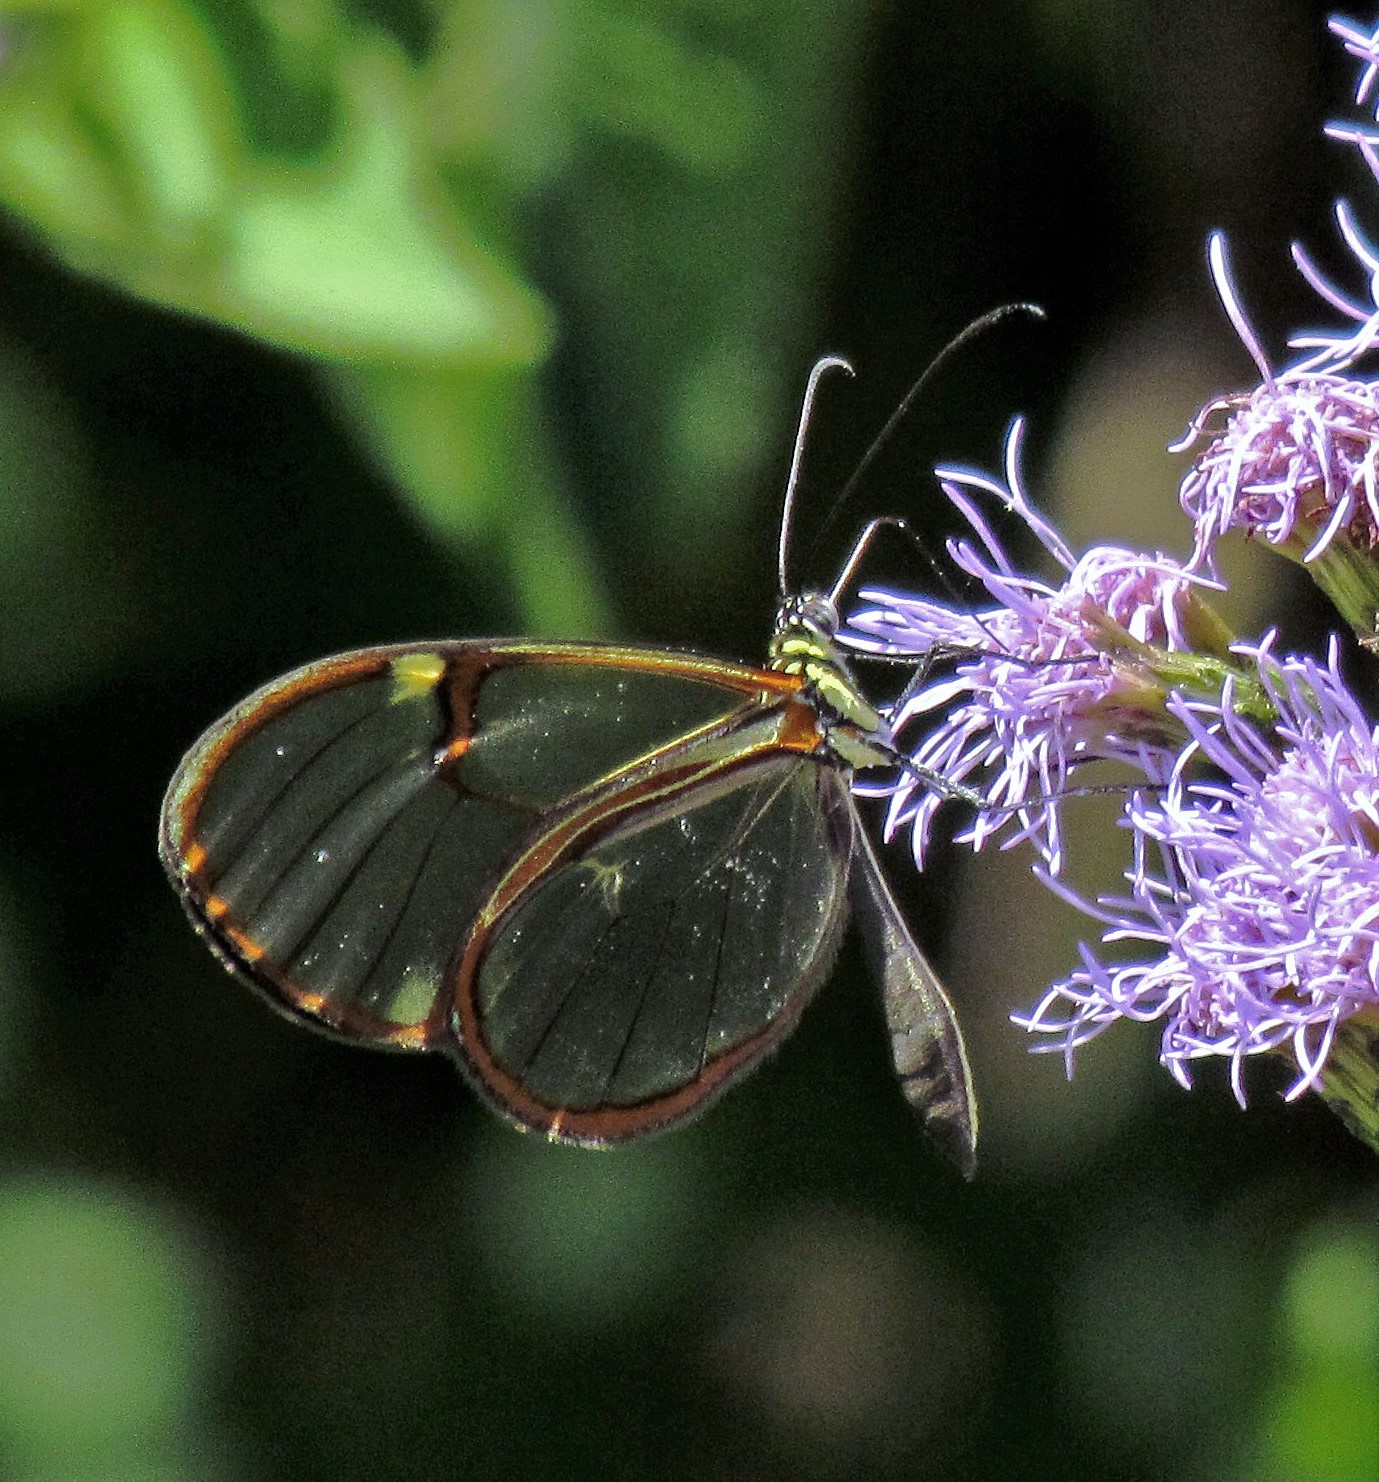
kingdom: Animalia
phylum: Arthropoda
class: Insecta
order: Lepidoptera
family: Nymphalidae
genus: Episcada
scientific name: Episcada hymenaea
